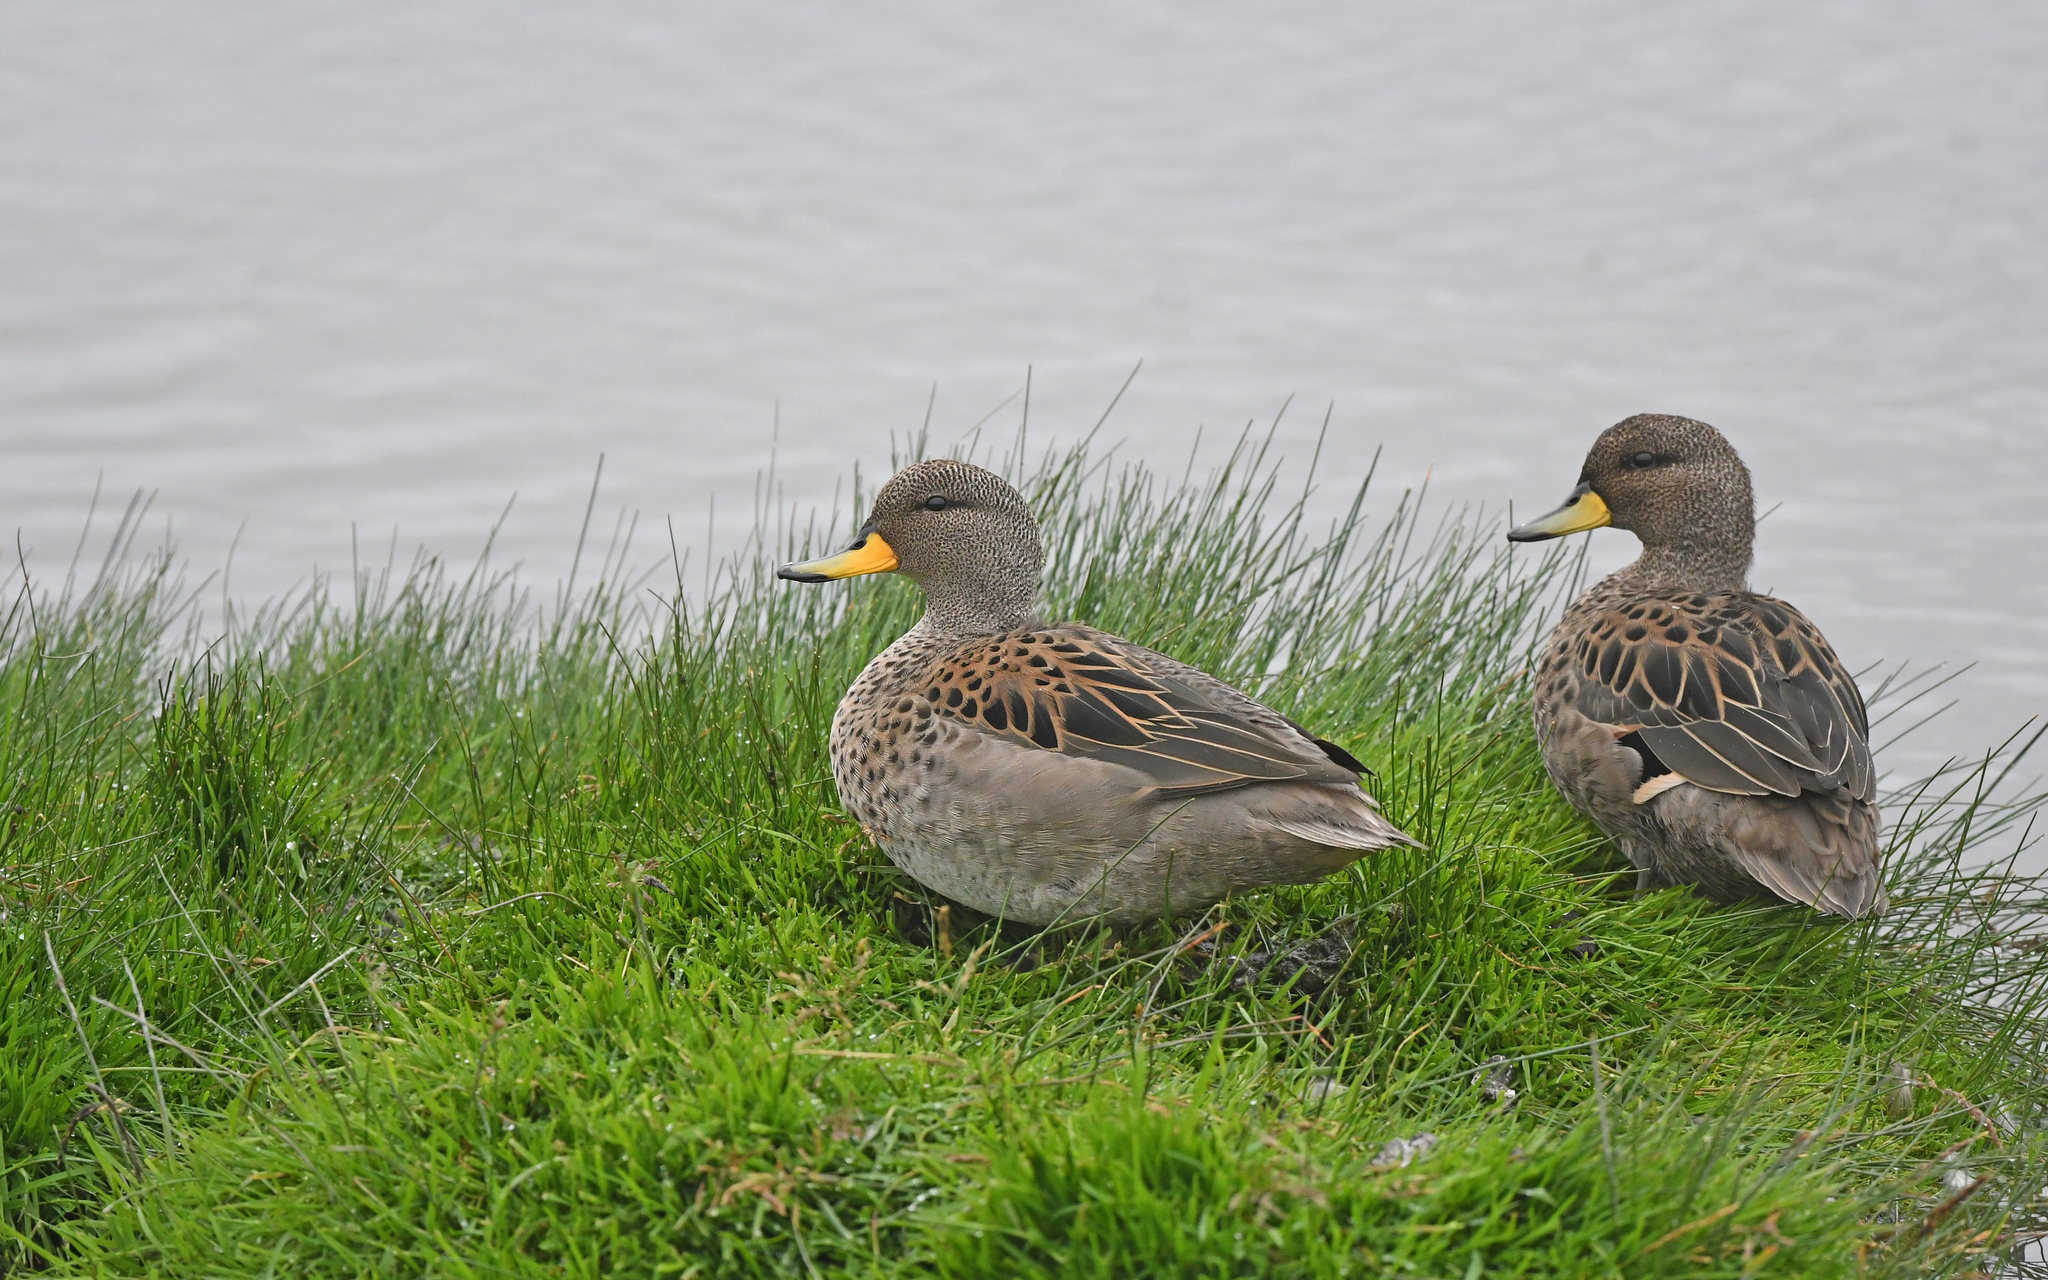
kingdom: Animalia
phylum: Chordata
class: Aves
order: Anseriformes
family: Anatidae
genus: Anas
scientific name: Anas flavirostris
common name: Yellow-billed teal
